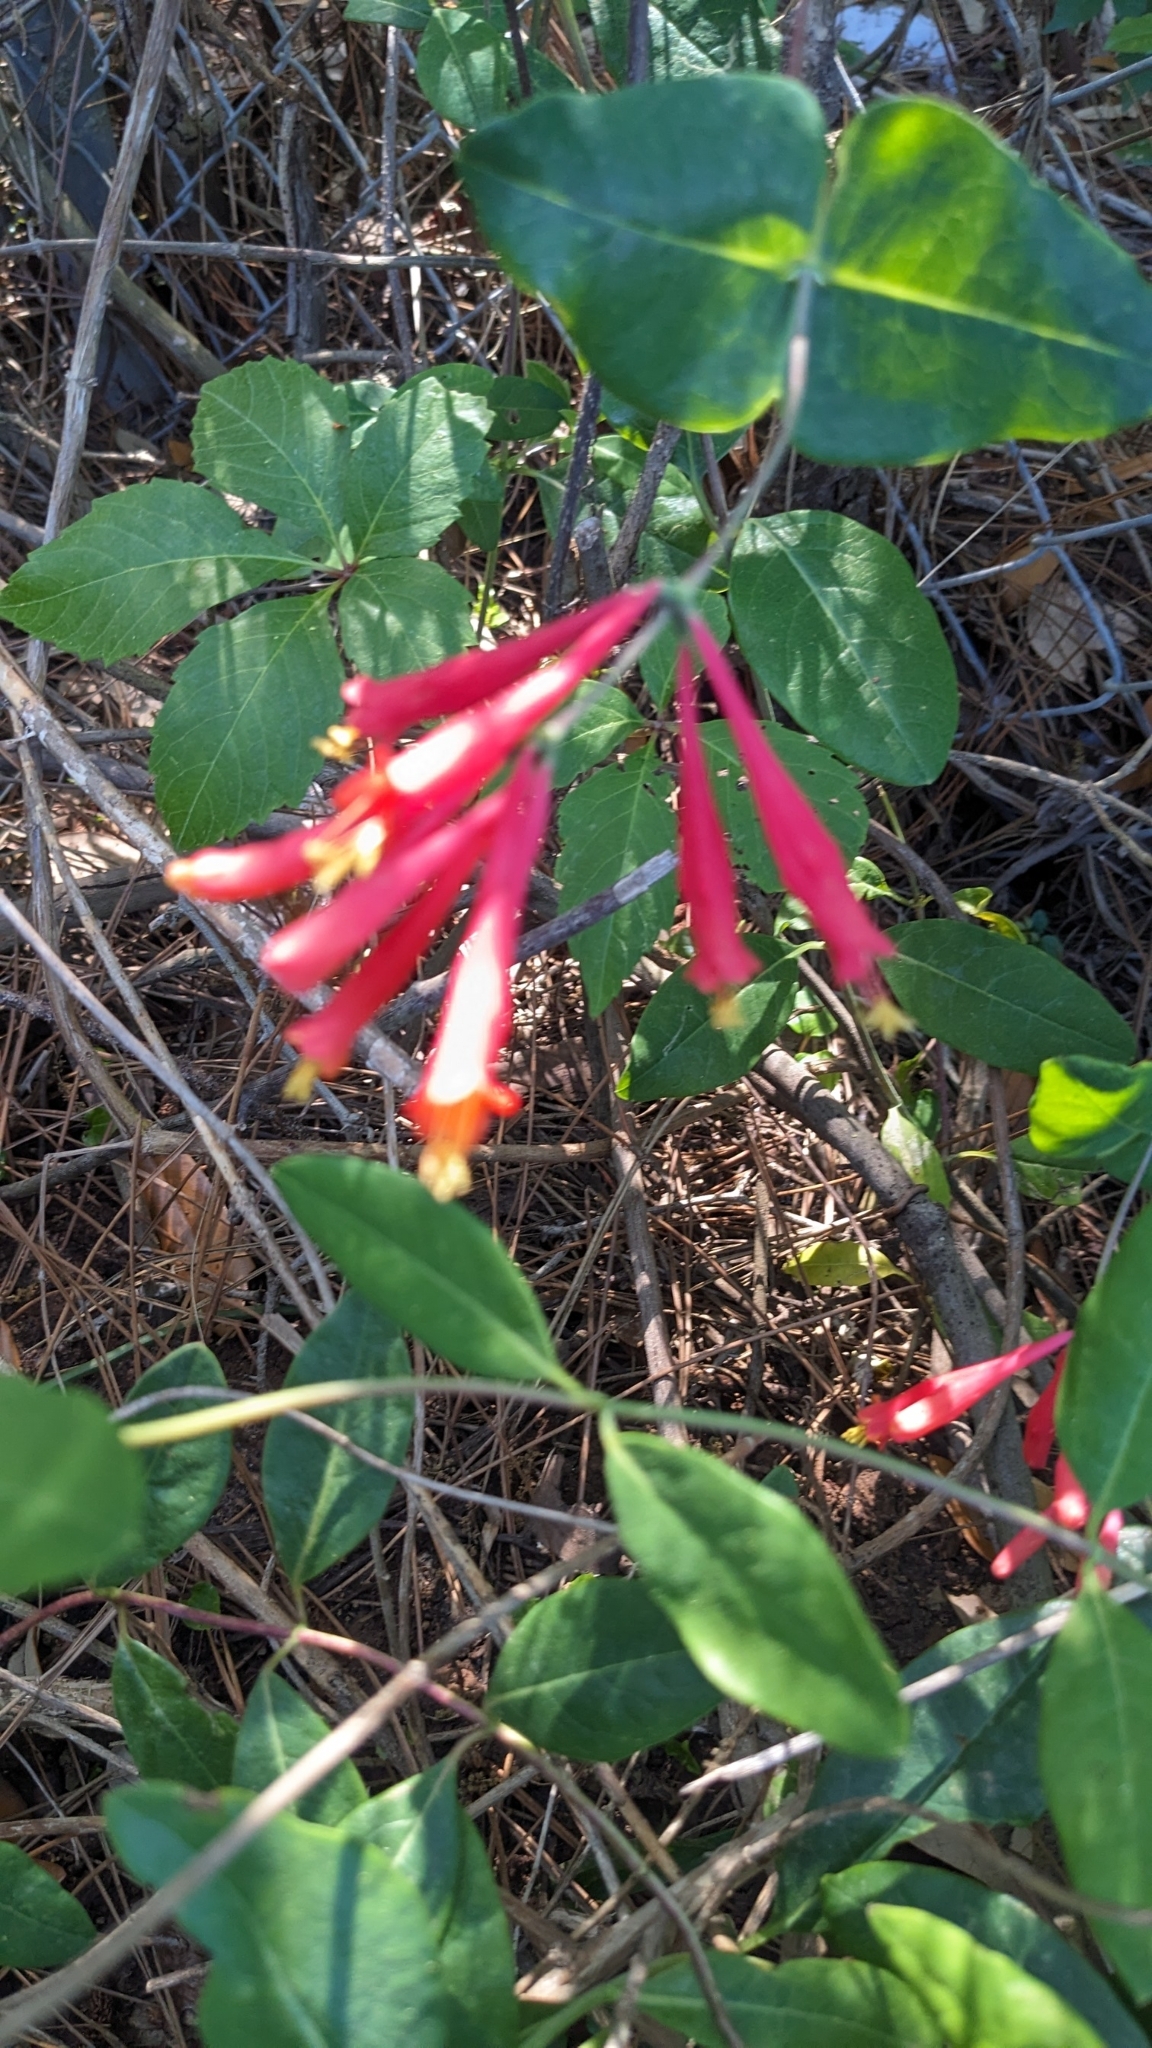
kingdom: Plantae
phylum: Tracheophyta
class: Magnoliopsida
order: Dipsacales
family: Caprifoliaceae
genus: Lonicera
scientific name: Lonicera sempervirens
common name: Coral honeysuckle
